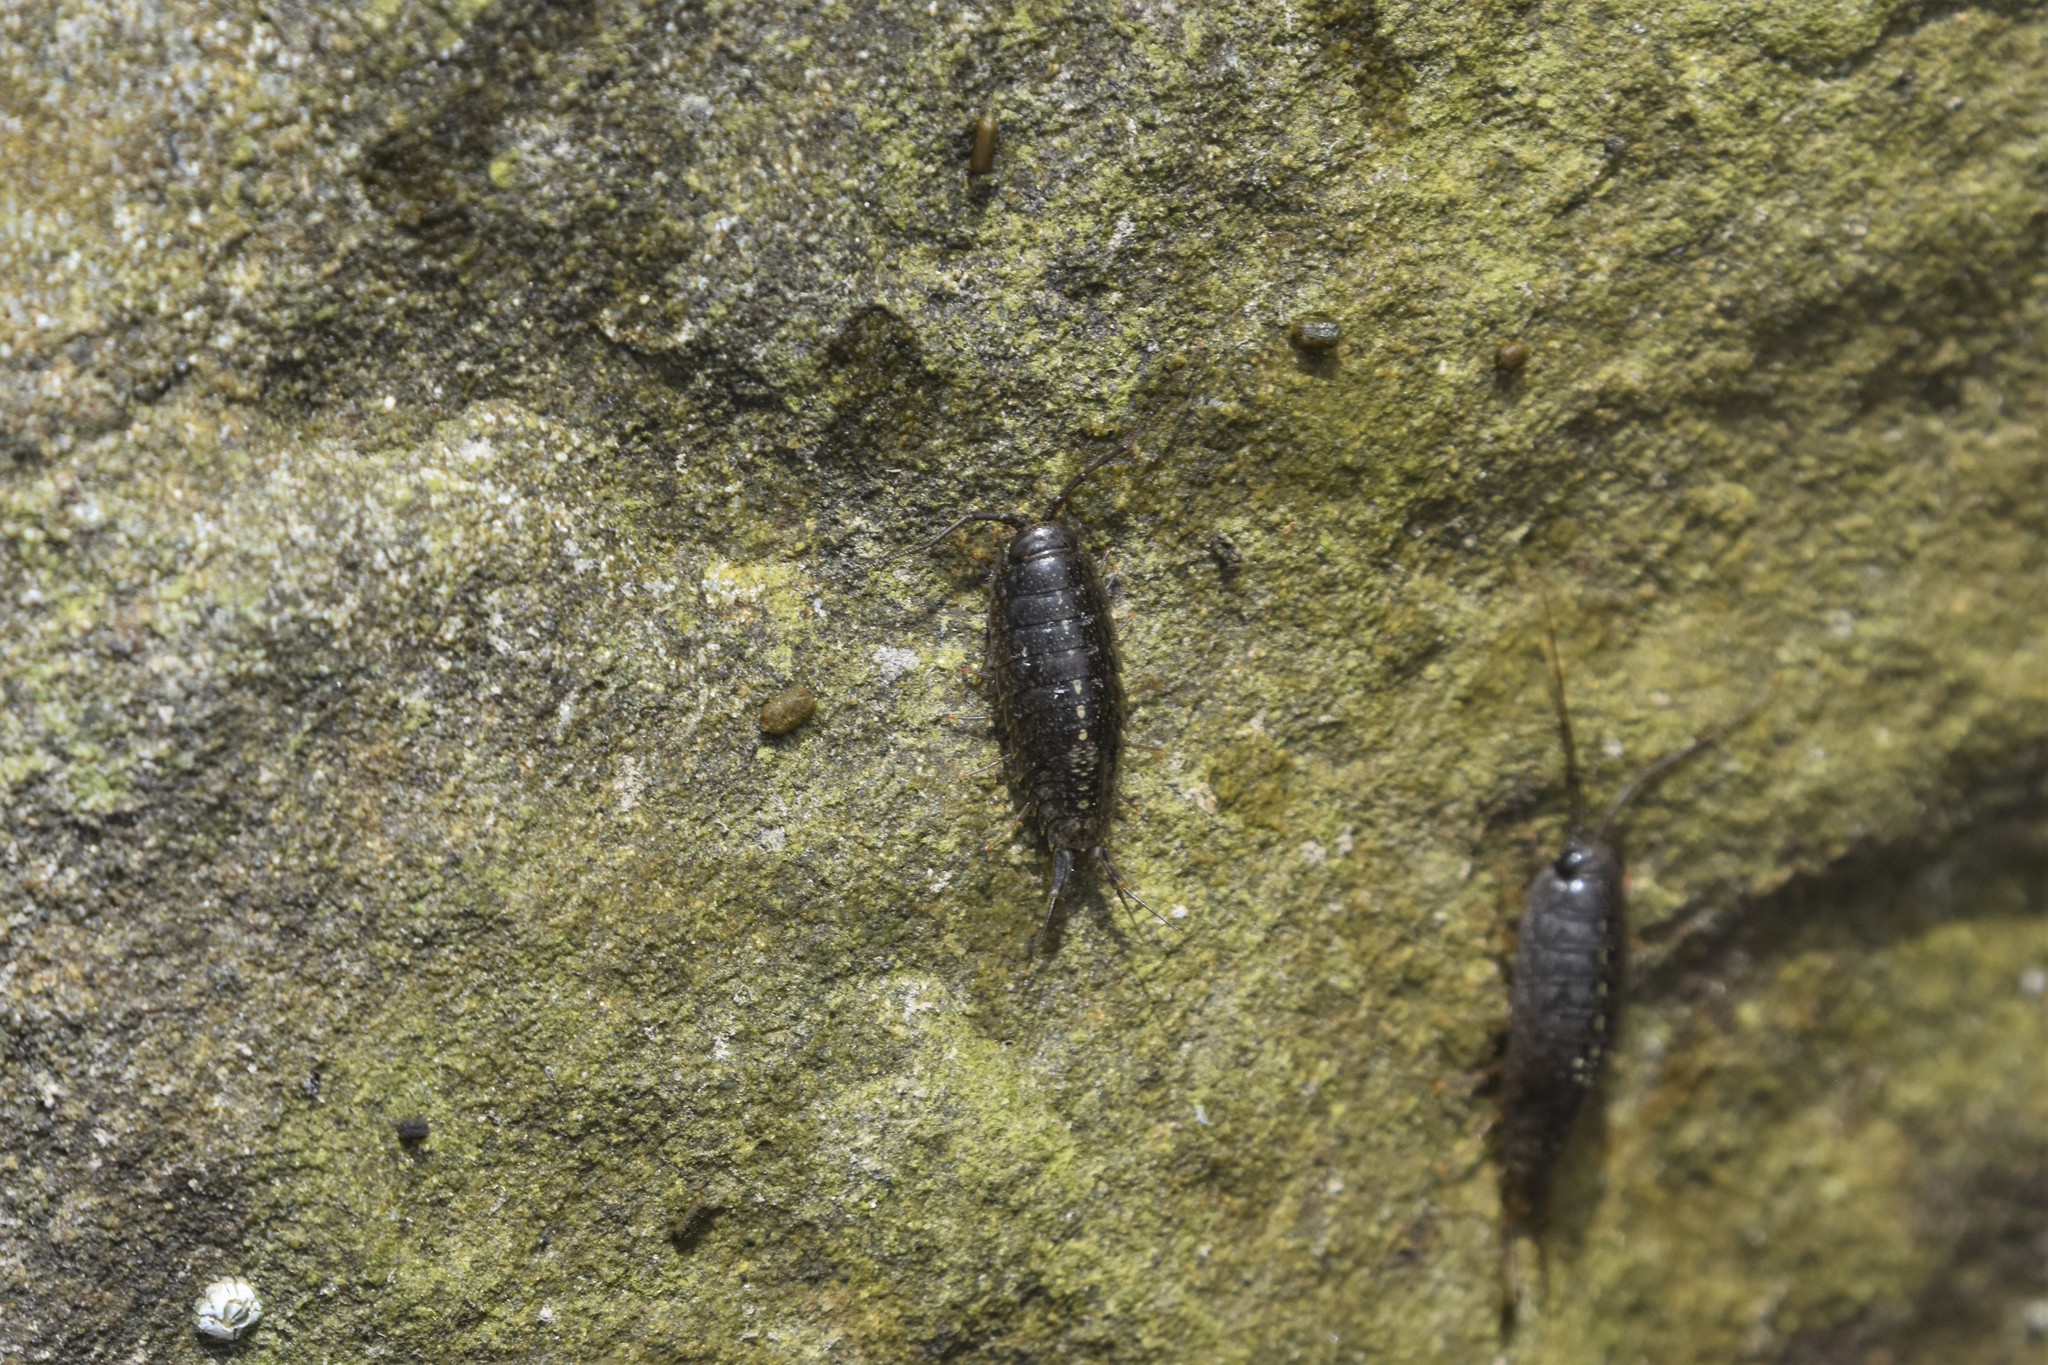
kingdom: Animalia
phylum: Arthropoda
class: Malacostraca
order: Isopoda
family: Ligiidae
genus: Ligia
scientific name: Ligia occidentalis
